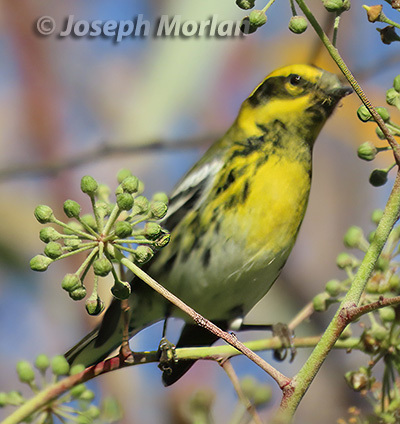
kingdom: Animalia
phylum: Chordata
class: Aves
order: Passeriformes
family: Parulidae
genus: Setophaga
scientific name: Setophaga townsendi
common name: Townsend's warbler
